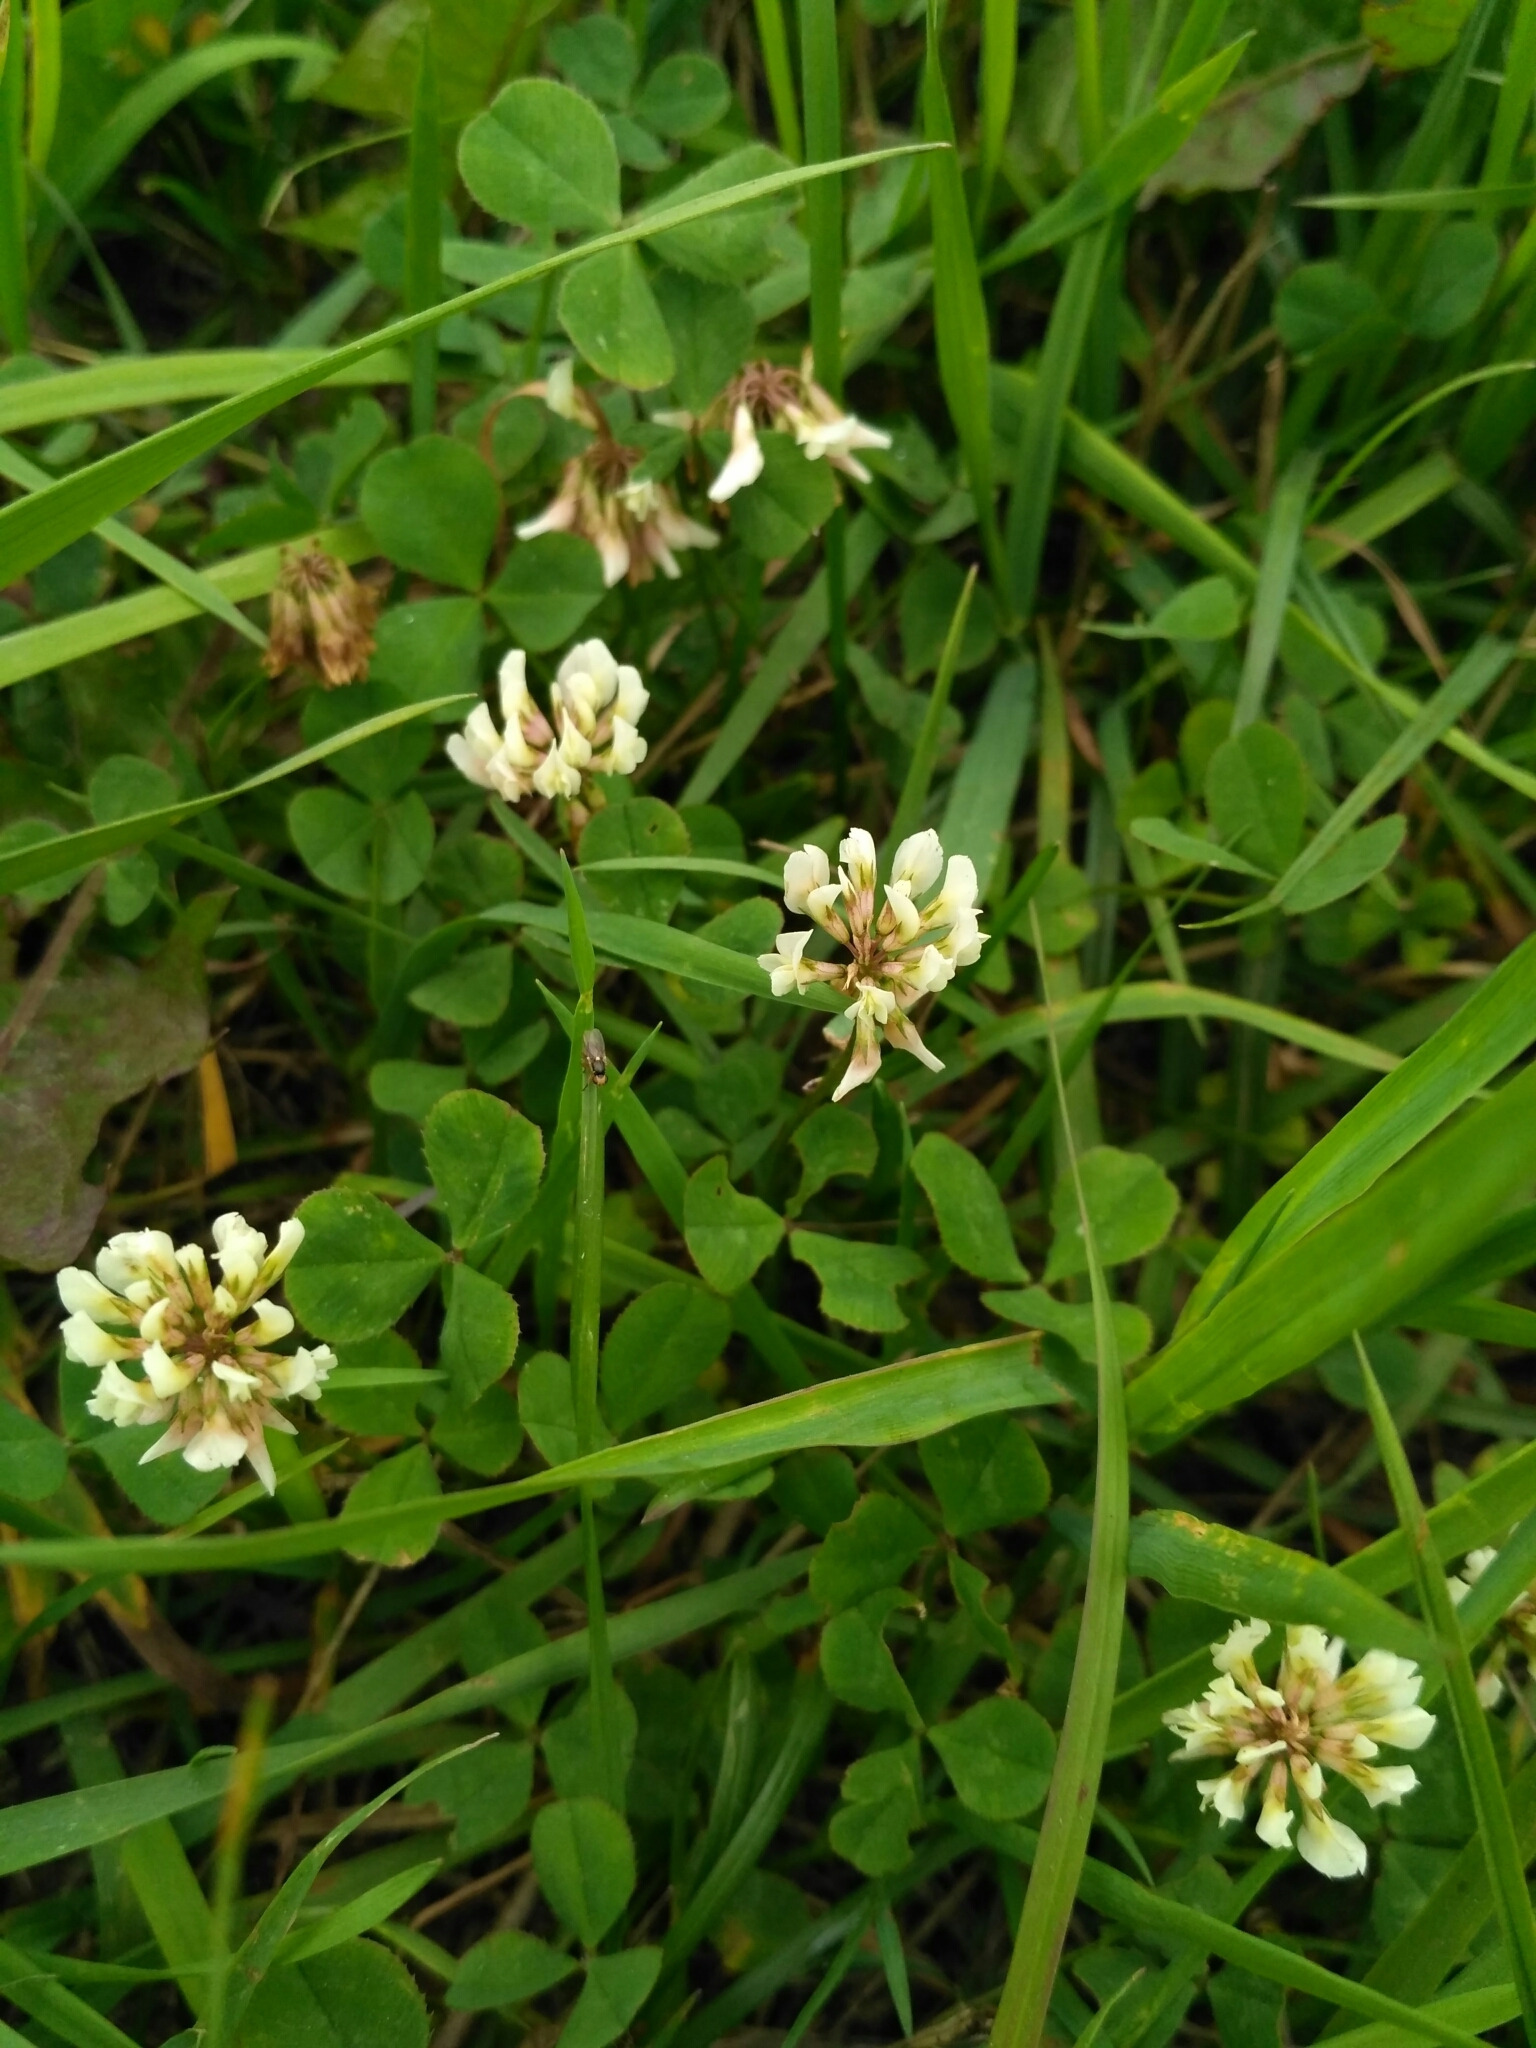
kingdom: Plantae
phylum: Tracheophyta
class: Magnoliopsida
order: Fabales
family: Fabaceae
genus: Trifolium
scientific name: Trifolium repens
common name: White clover
